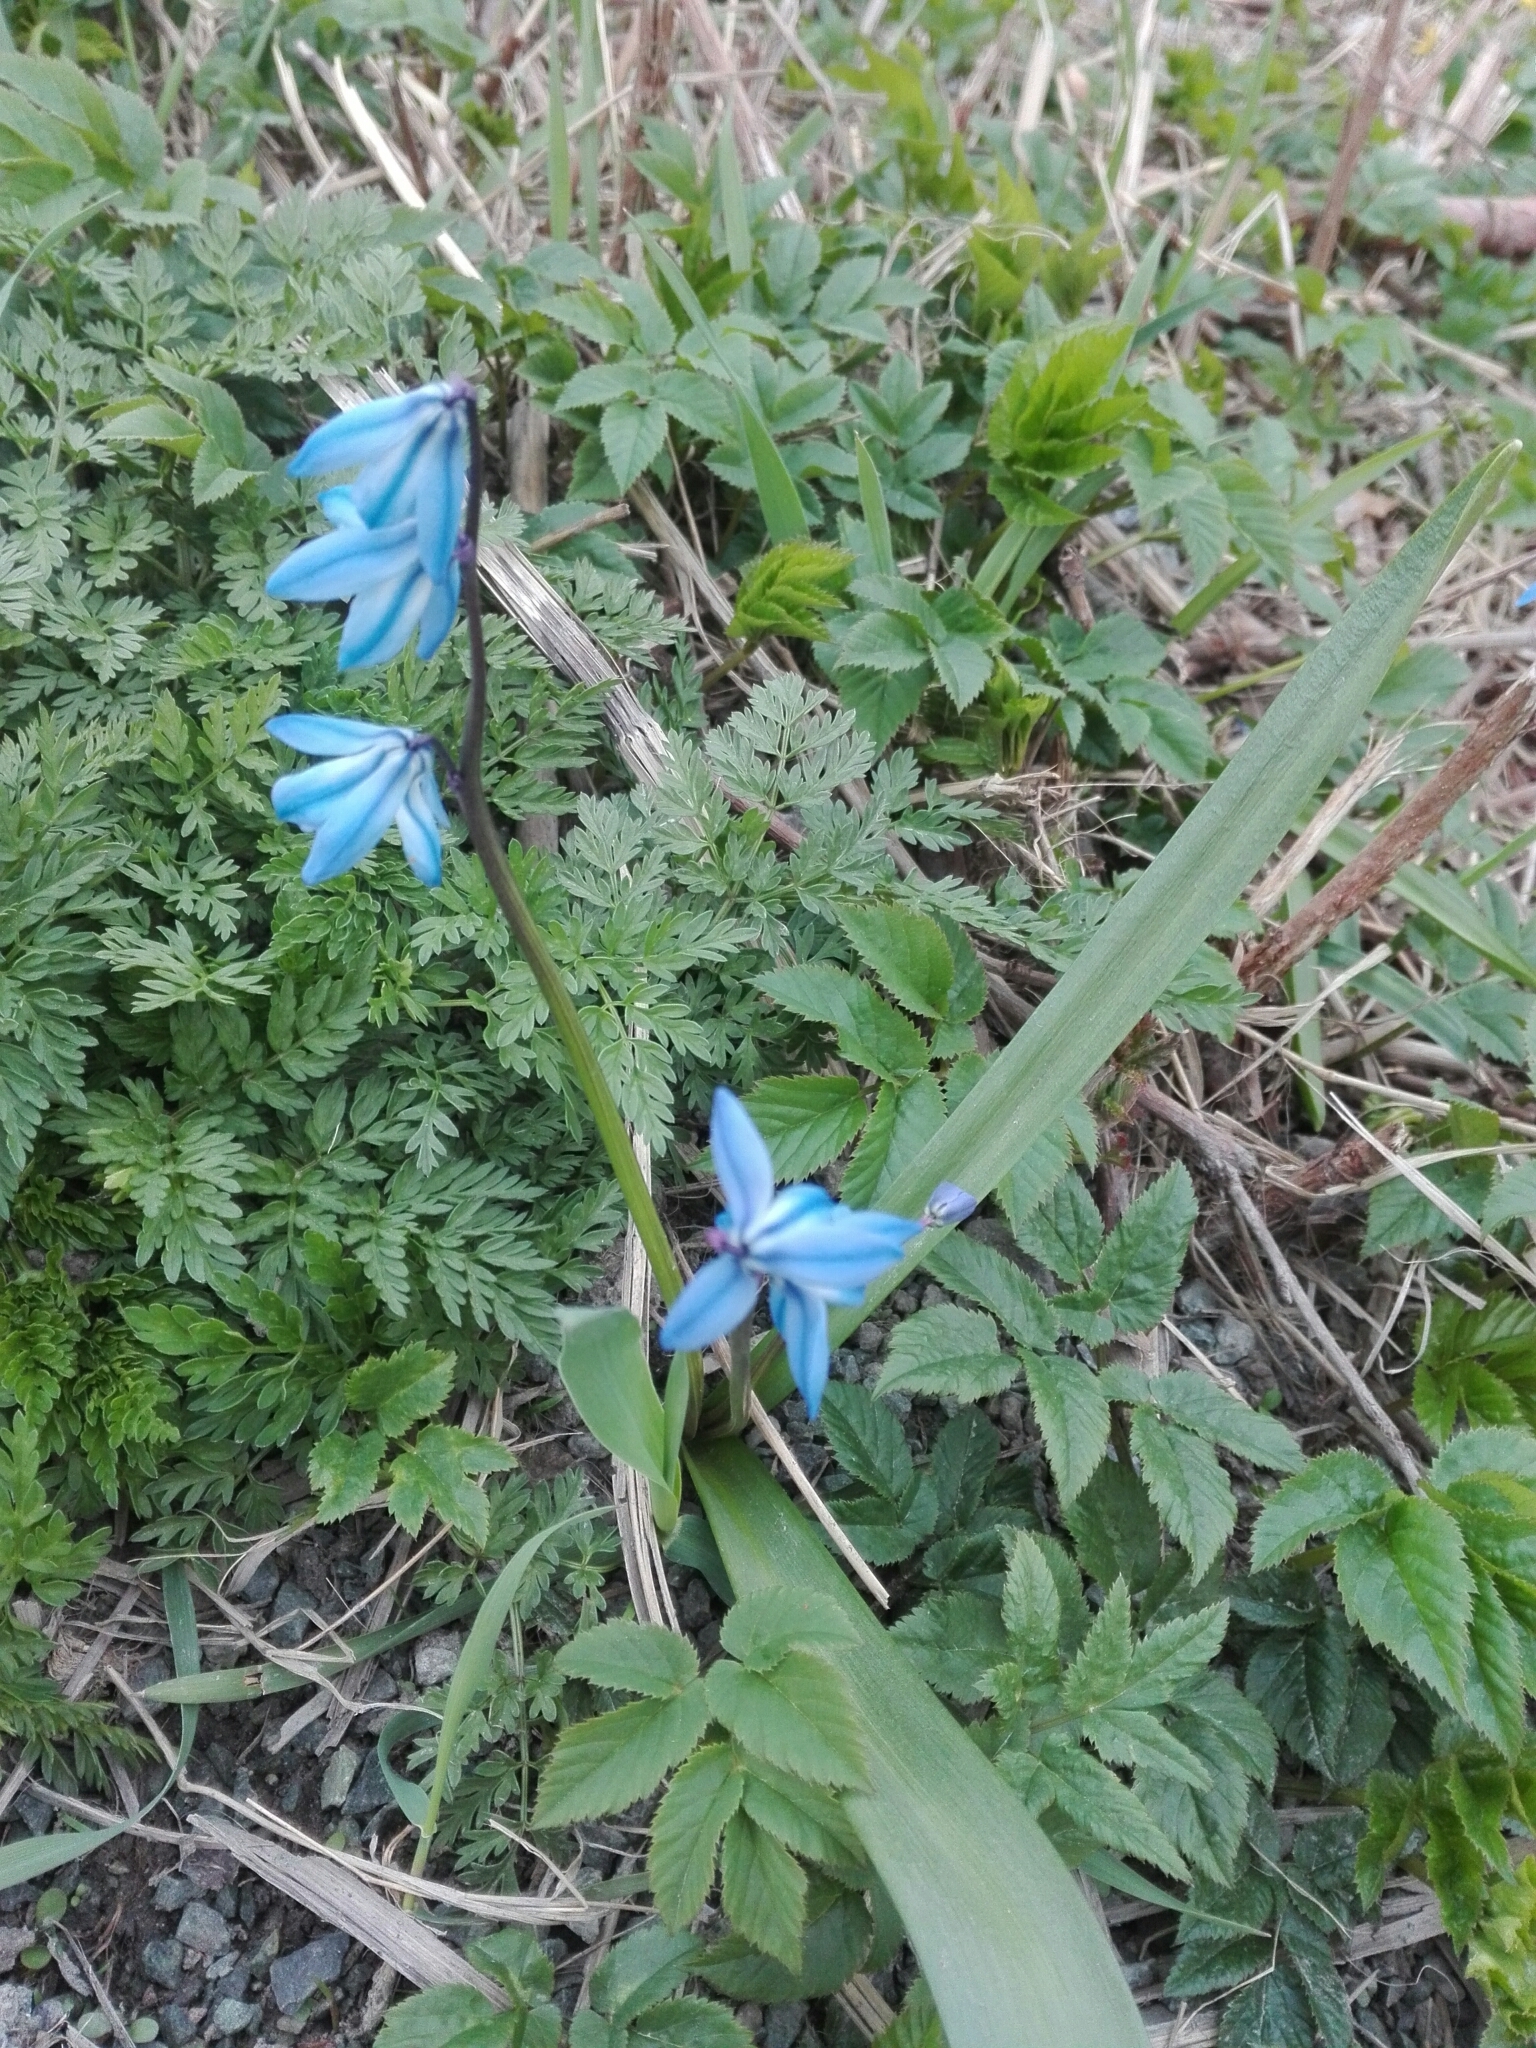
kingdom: Plantae
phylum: Tracheophyta
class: Liliopsida
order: Asparagales
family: Asparagaceae
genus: Scilla
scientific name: Scilla siberica
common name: Siberian squill
